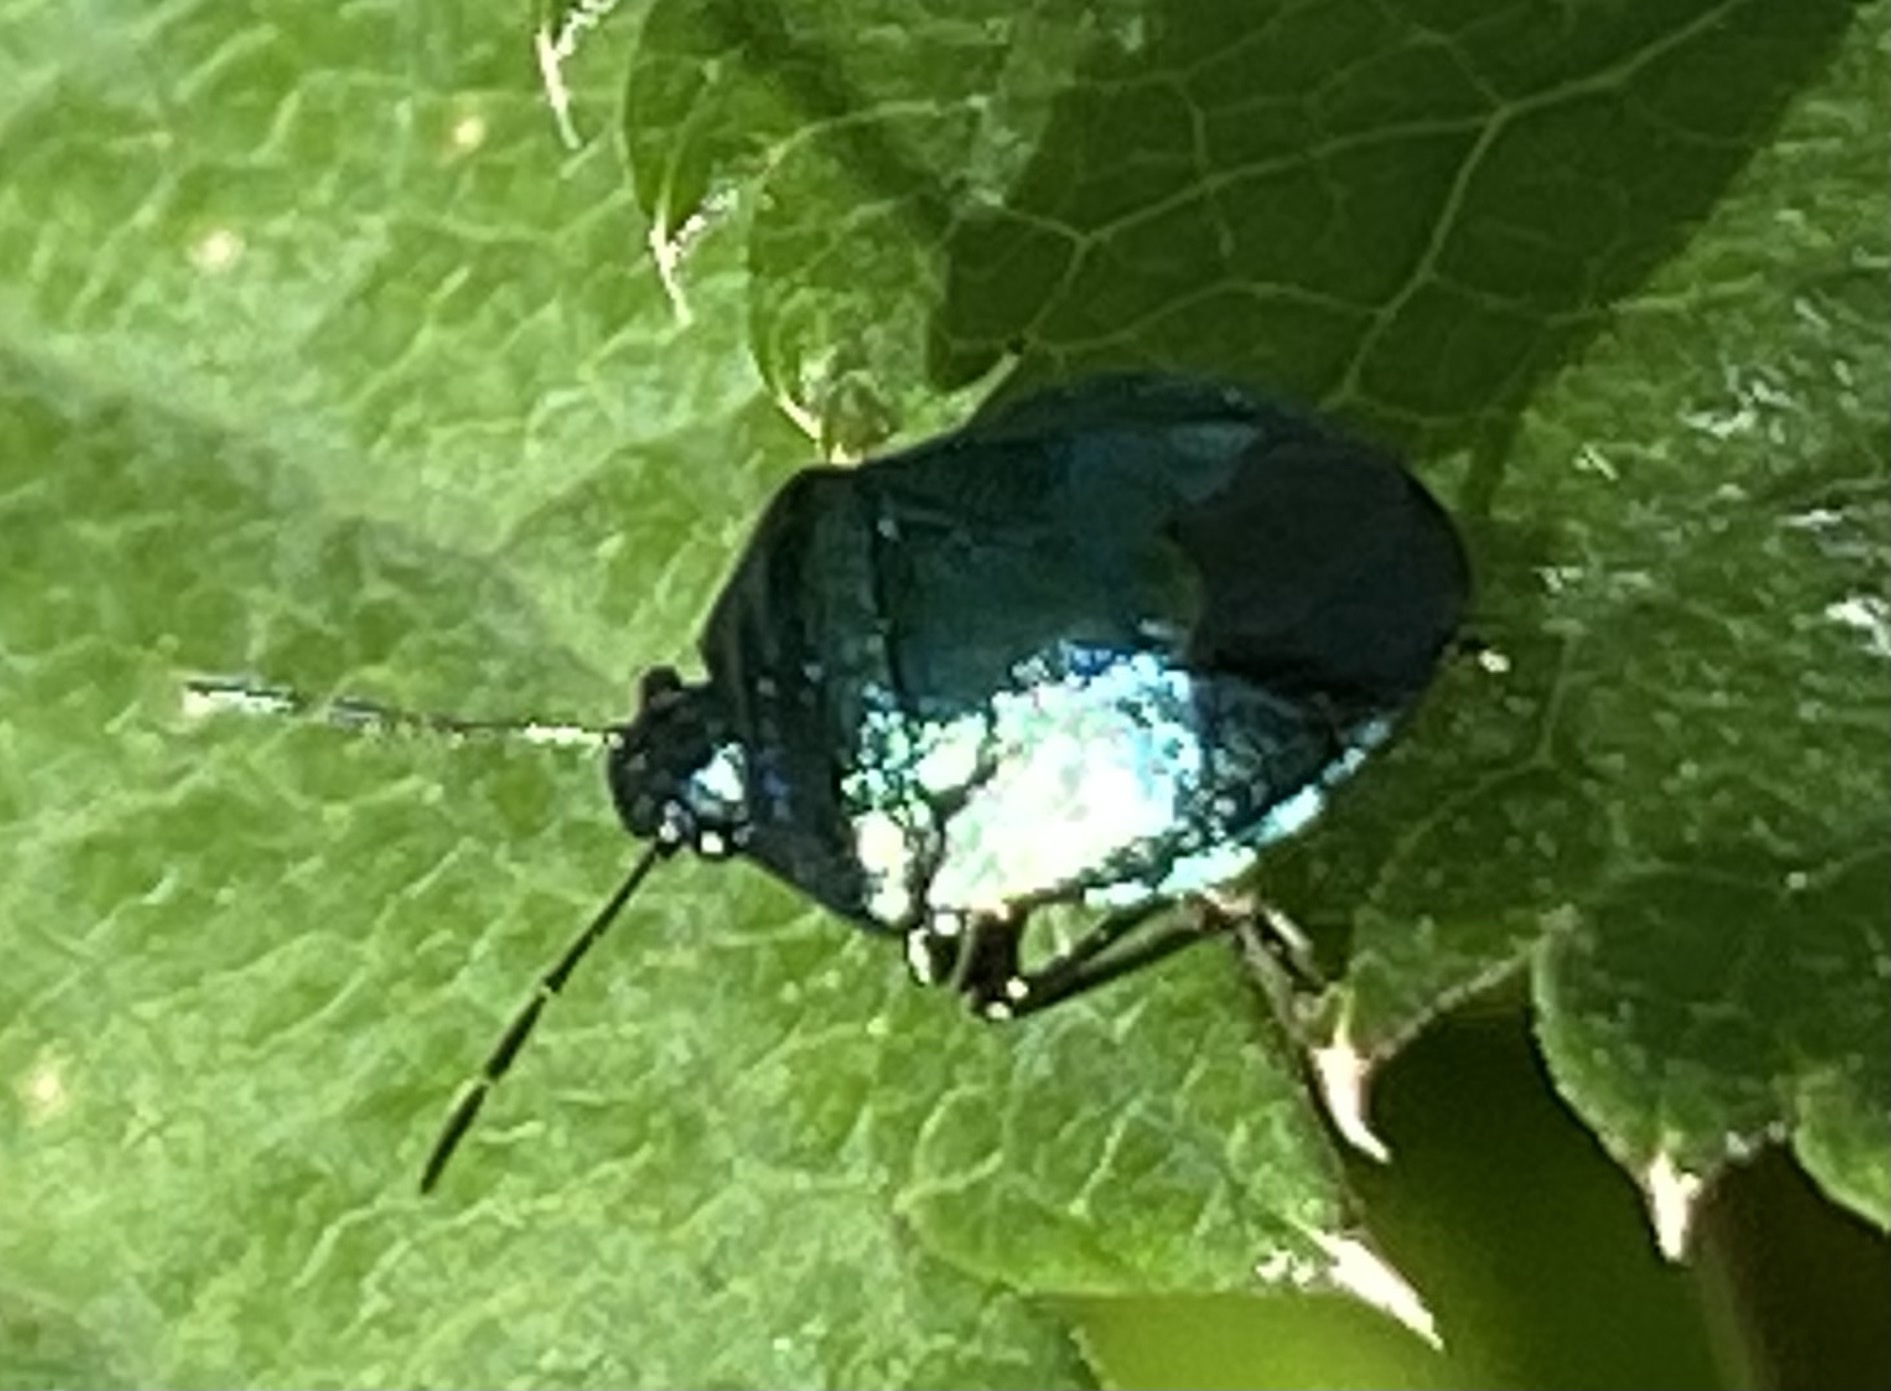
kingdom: Animalia
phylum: Arthropoda
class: Insecta
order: Hemiptera
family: Pentatomidae
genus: Zicrona
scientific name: Zicrona caerulea
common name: Blue shieldbug
